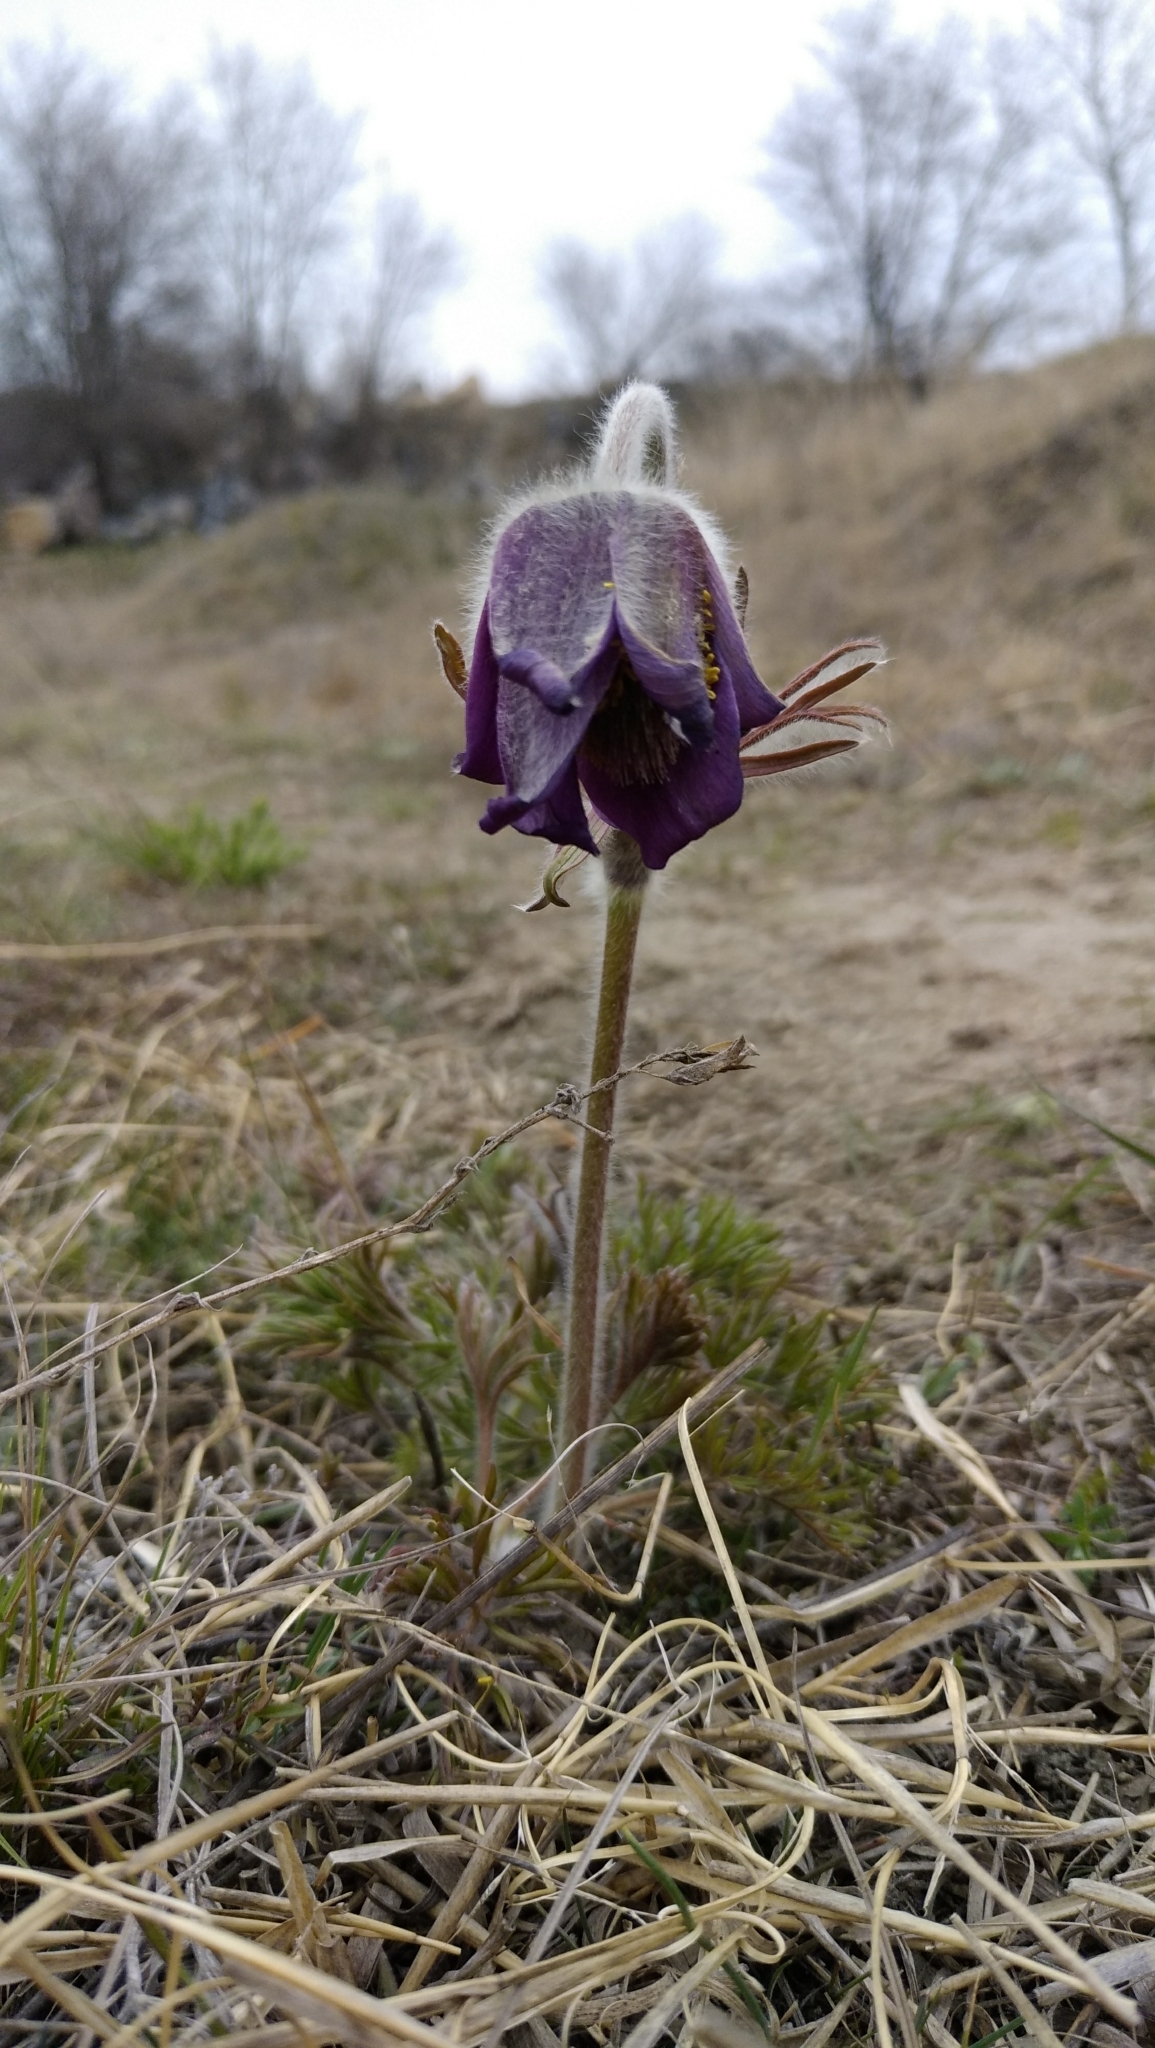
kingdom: Plantae
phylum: Tracheophyta
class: Magnoliopsida
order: Ranunculales
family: Ranunculaceae
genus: Pulsatilla
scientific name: Pulsatilla pratensis
